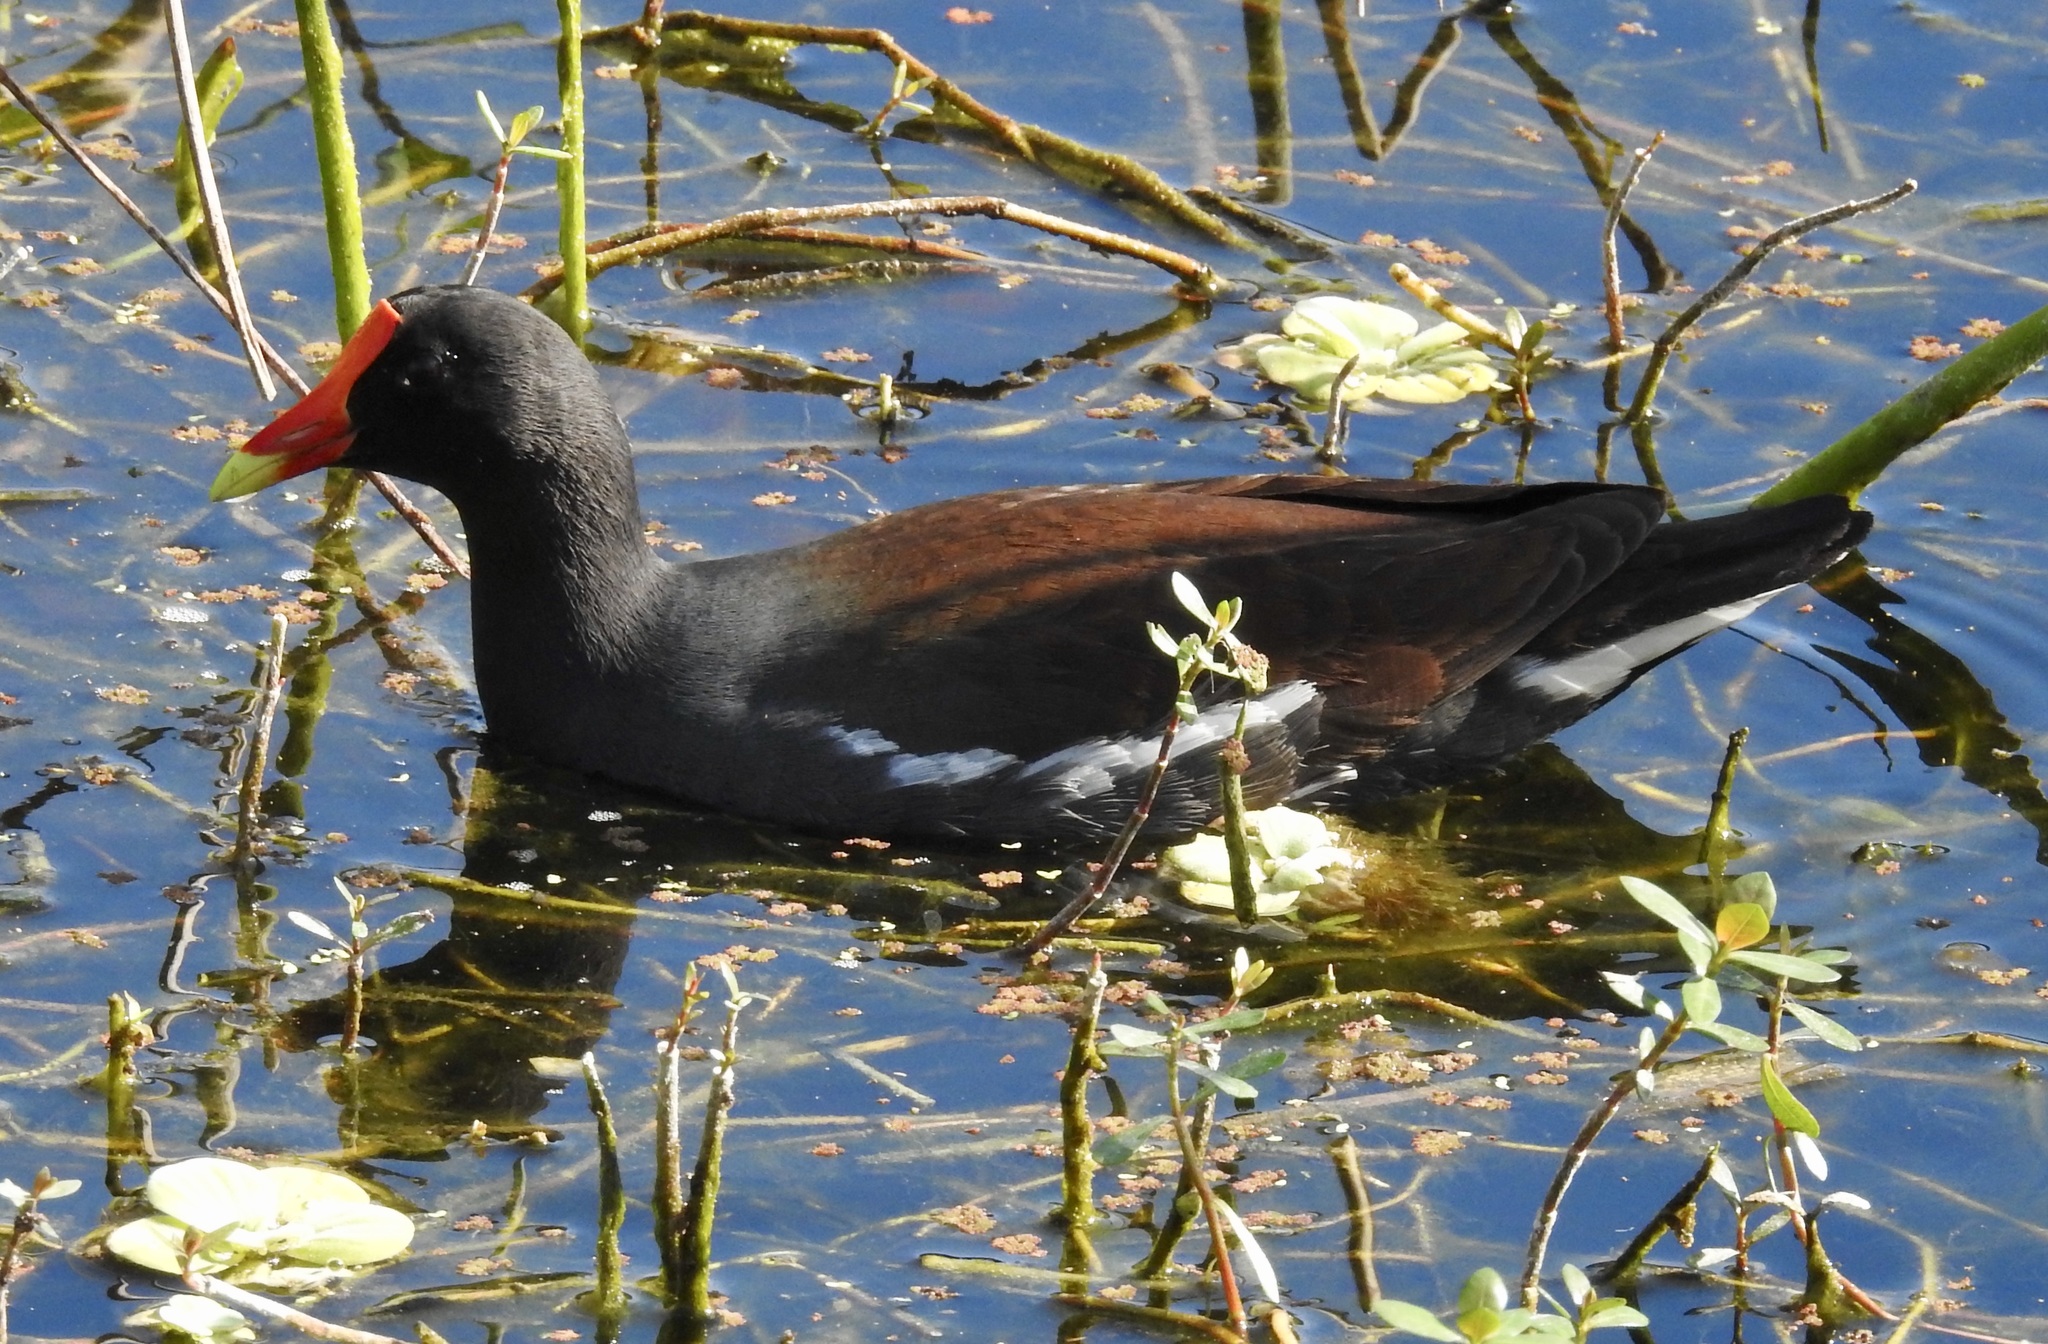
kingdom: Animalia
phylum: Chordata
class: Aves
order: Gruiformes
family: Rallidae
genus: Gallinula
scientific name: Gallinula chloropus
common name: Common moorhen
